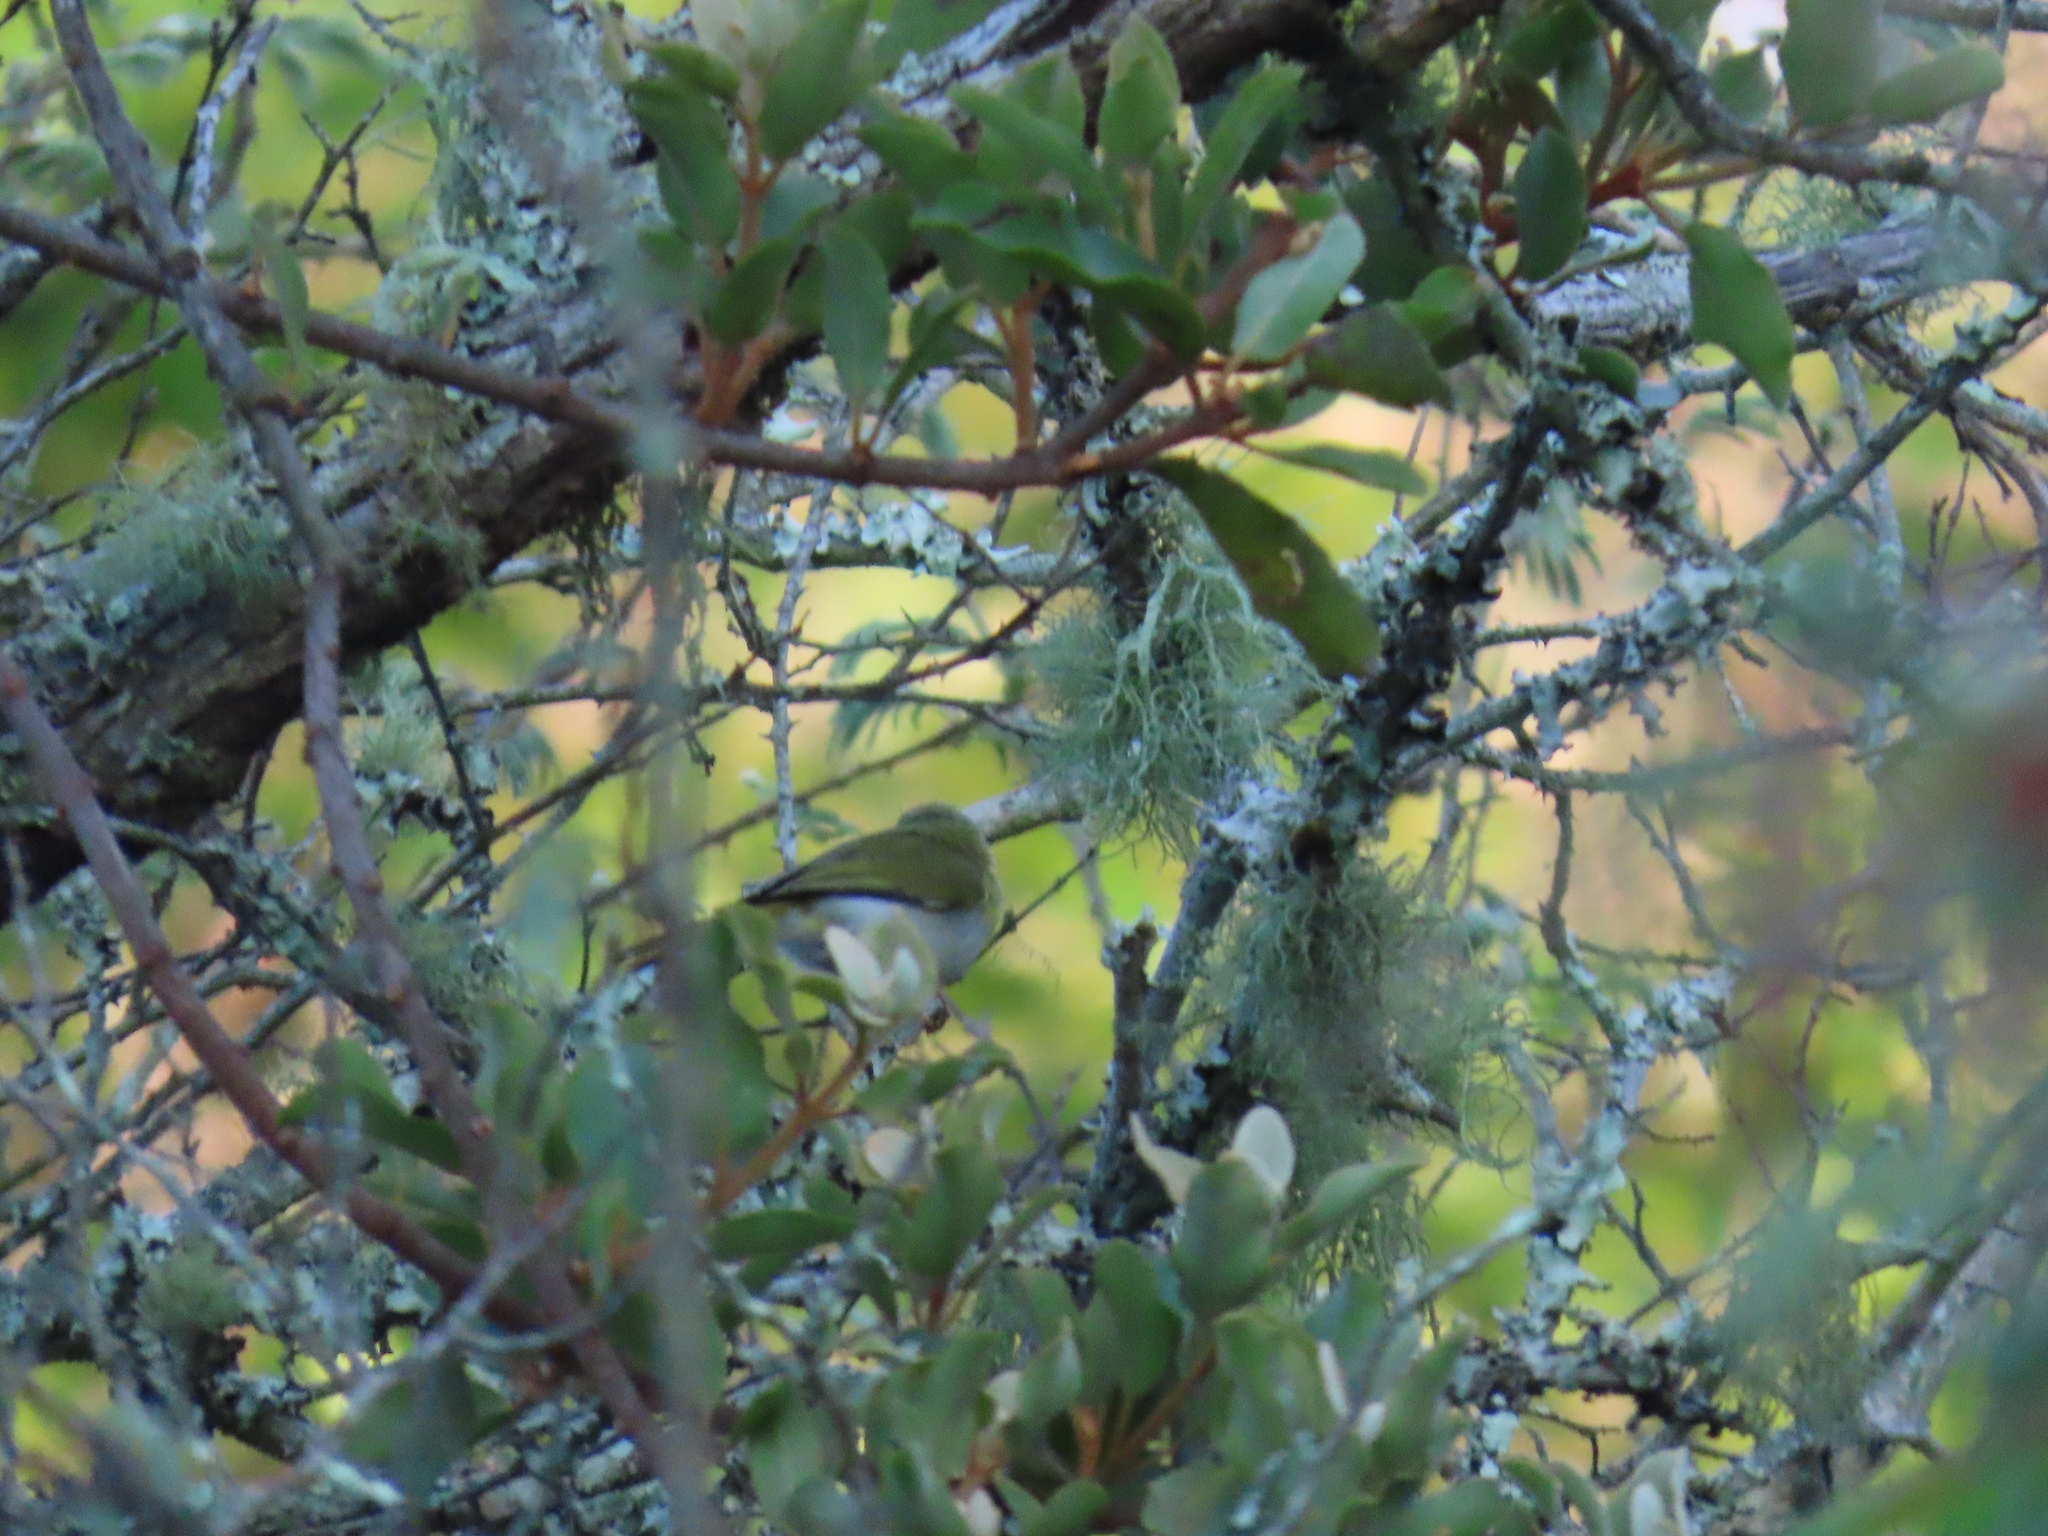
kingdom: Animalia
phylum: Chordata
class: Aves
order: Passeriformes
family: Cisticolidae
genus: Apalis
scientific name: Apalis flavida
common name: Yellow-breasted apalis
